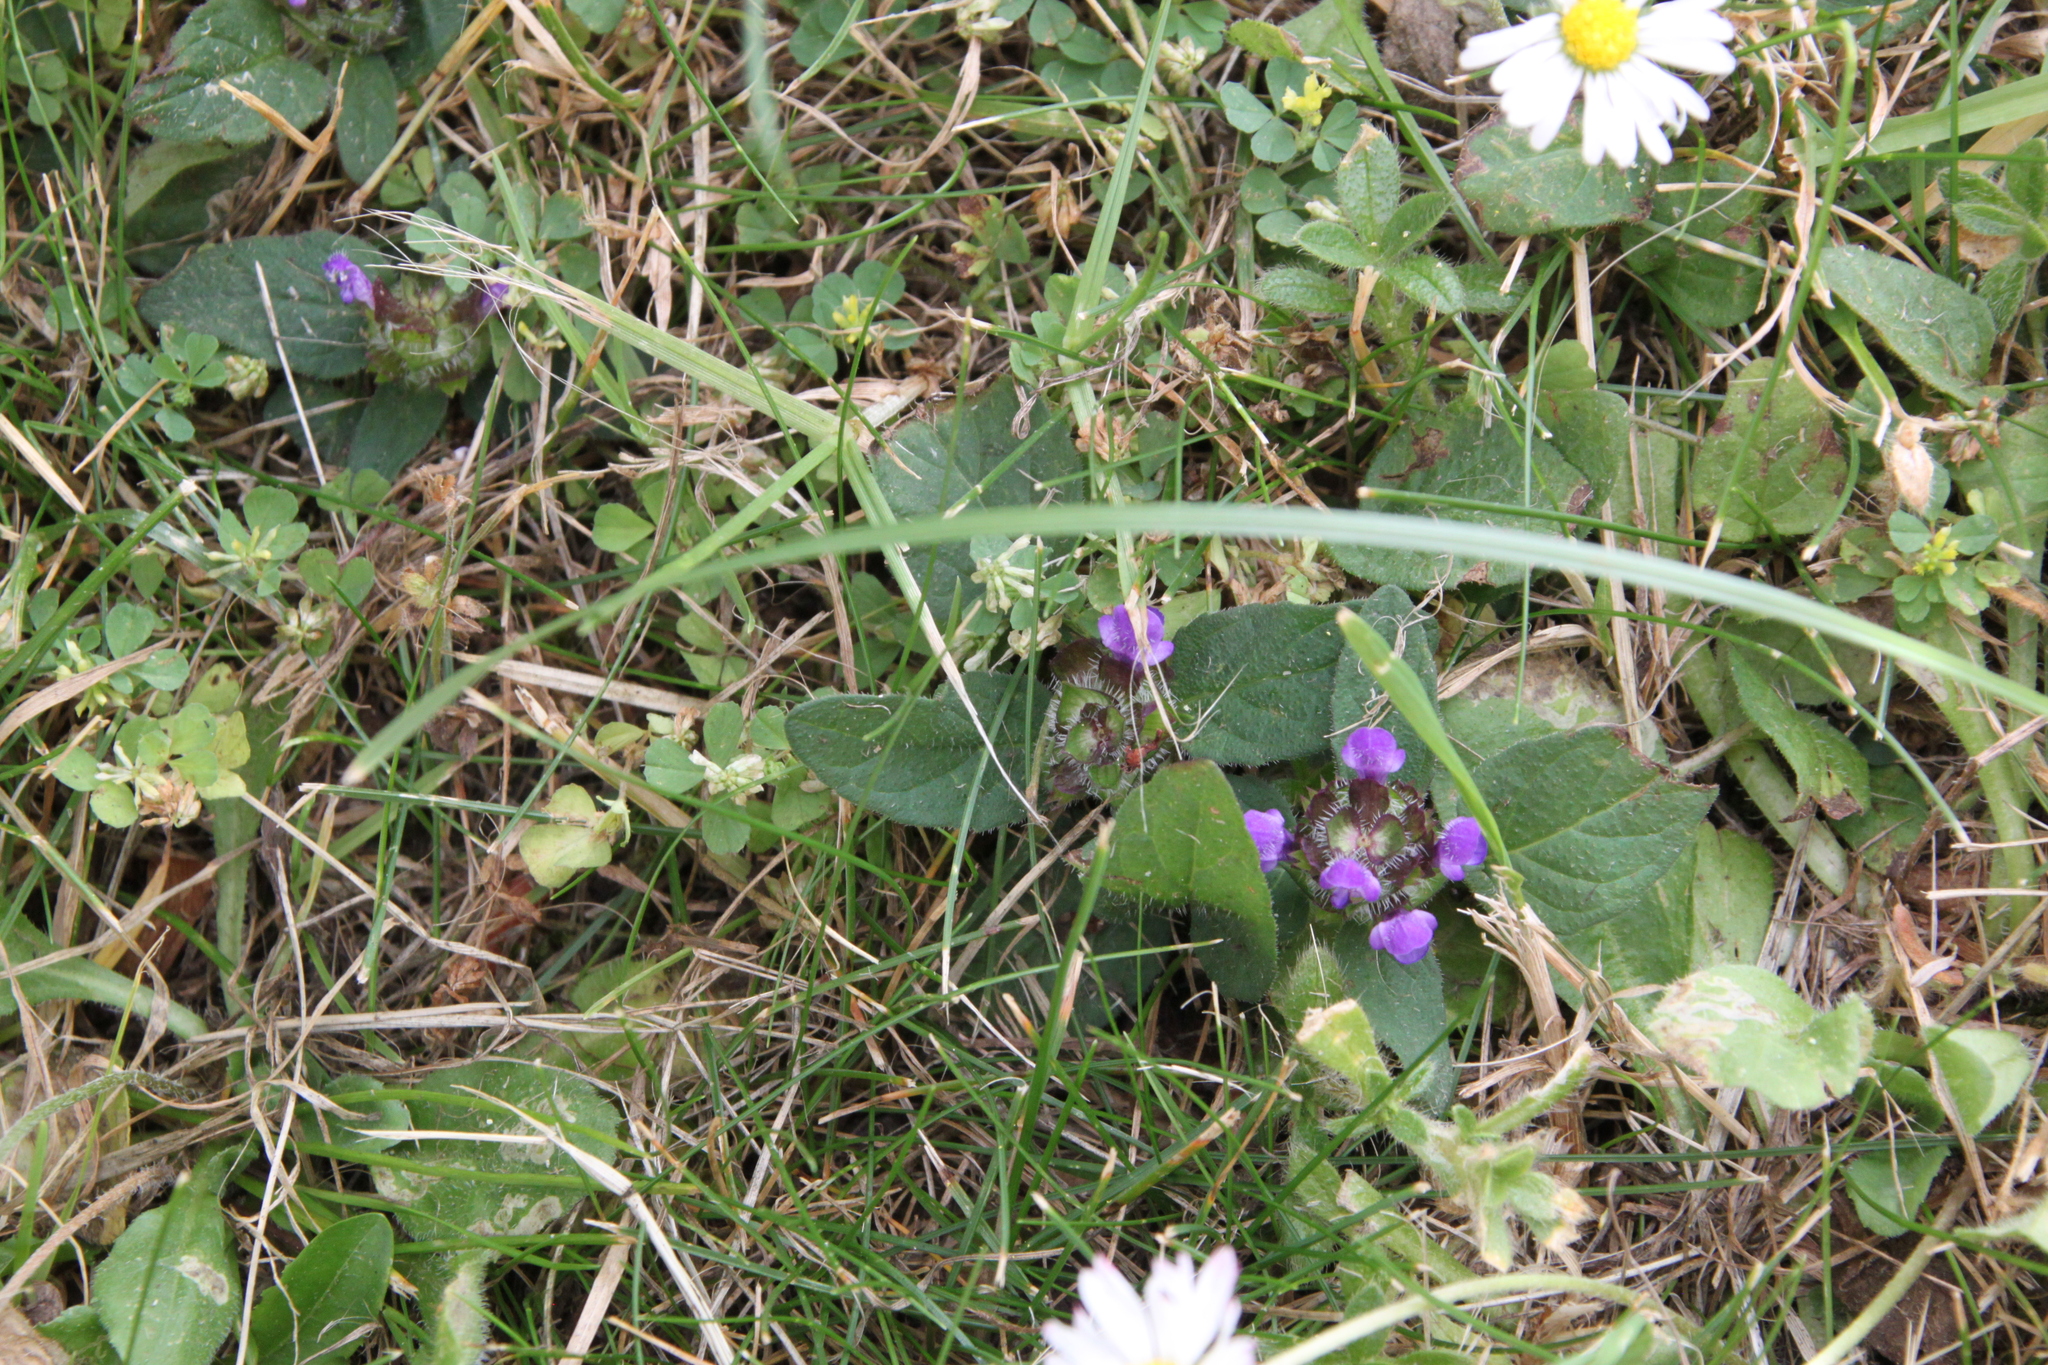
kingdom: Plantae
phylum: Tracheophyta
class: Magnoliopsida
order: Lamiales
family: Lamiaceae
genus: Prunella
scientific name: Prunella vulgaris
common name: Heal-all
